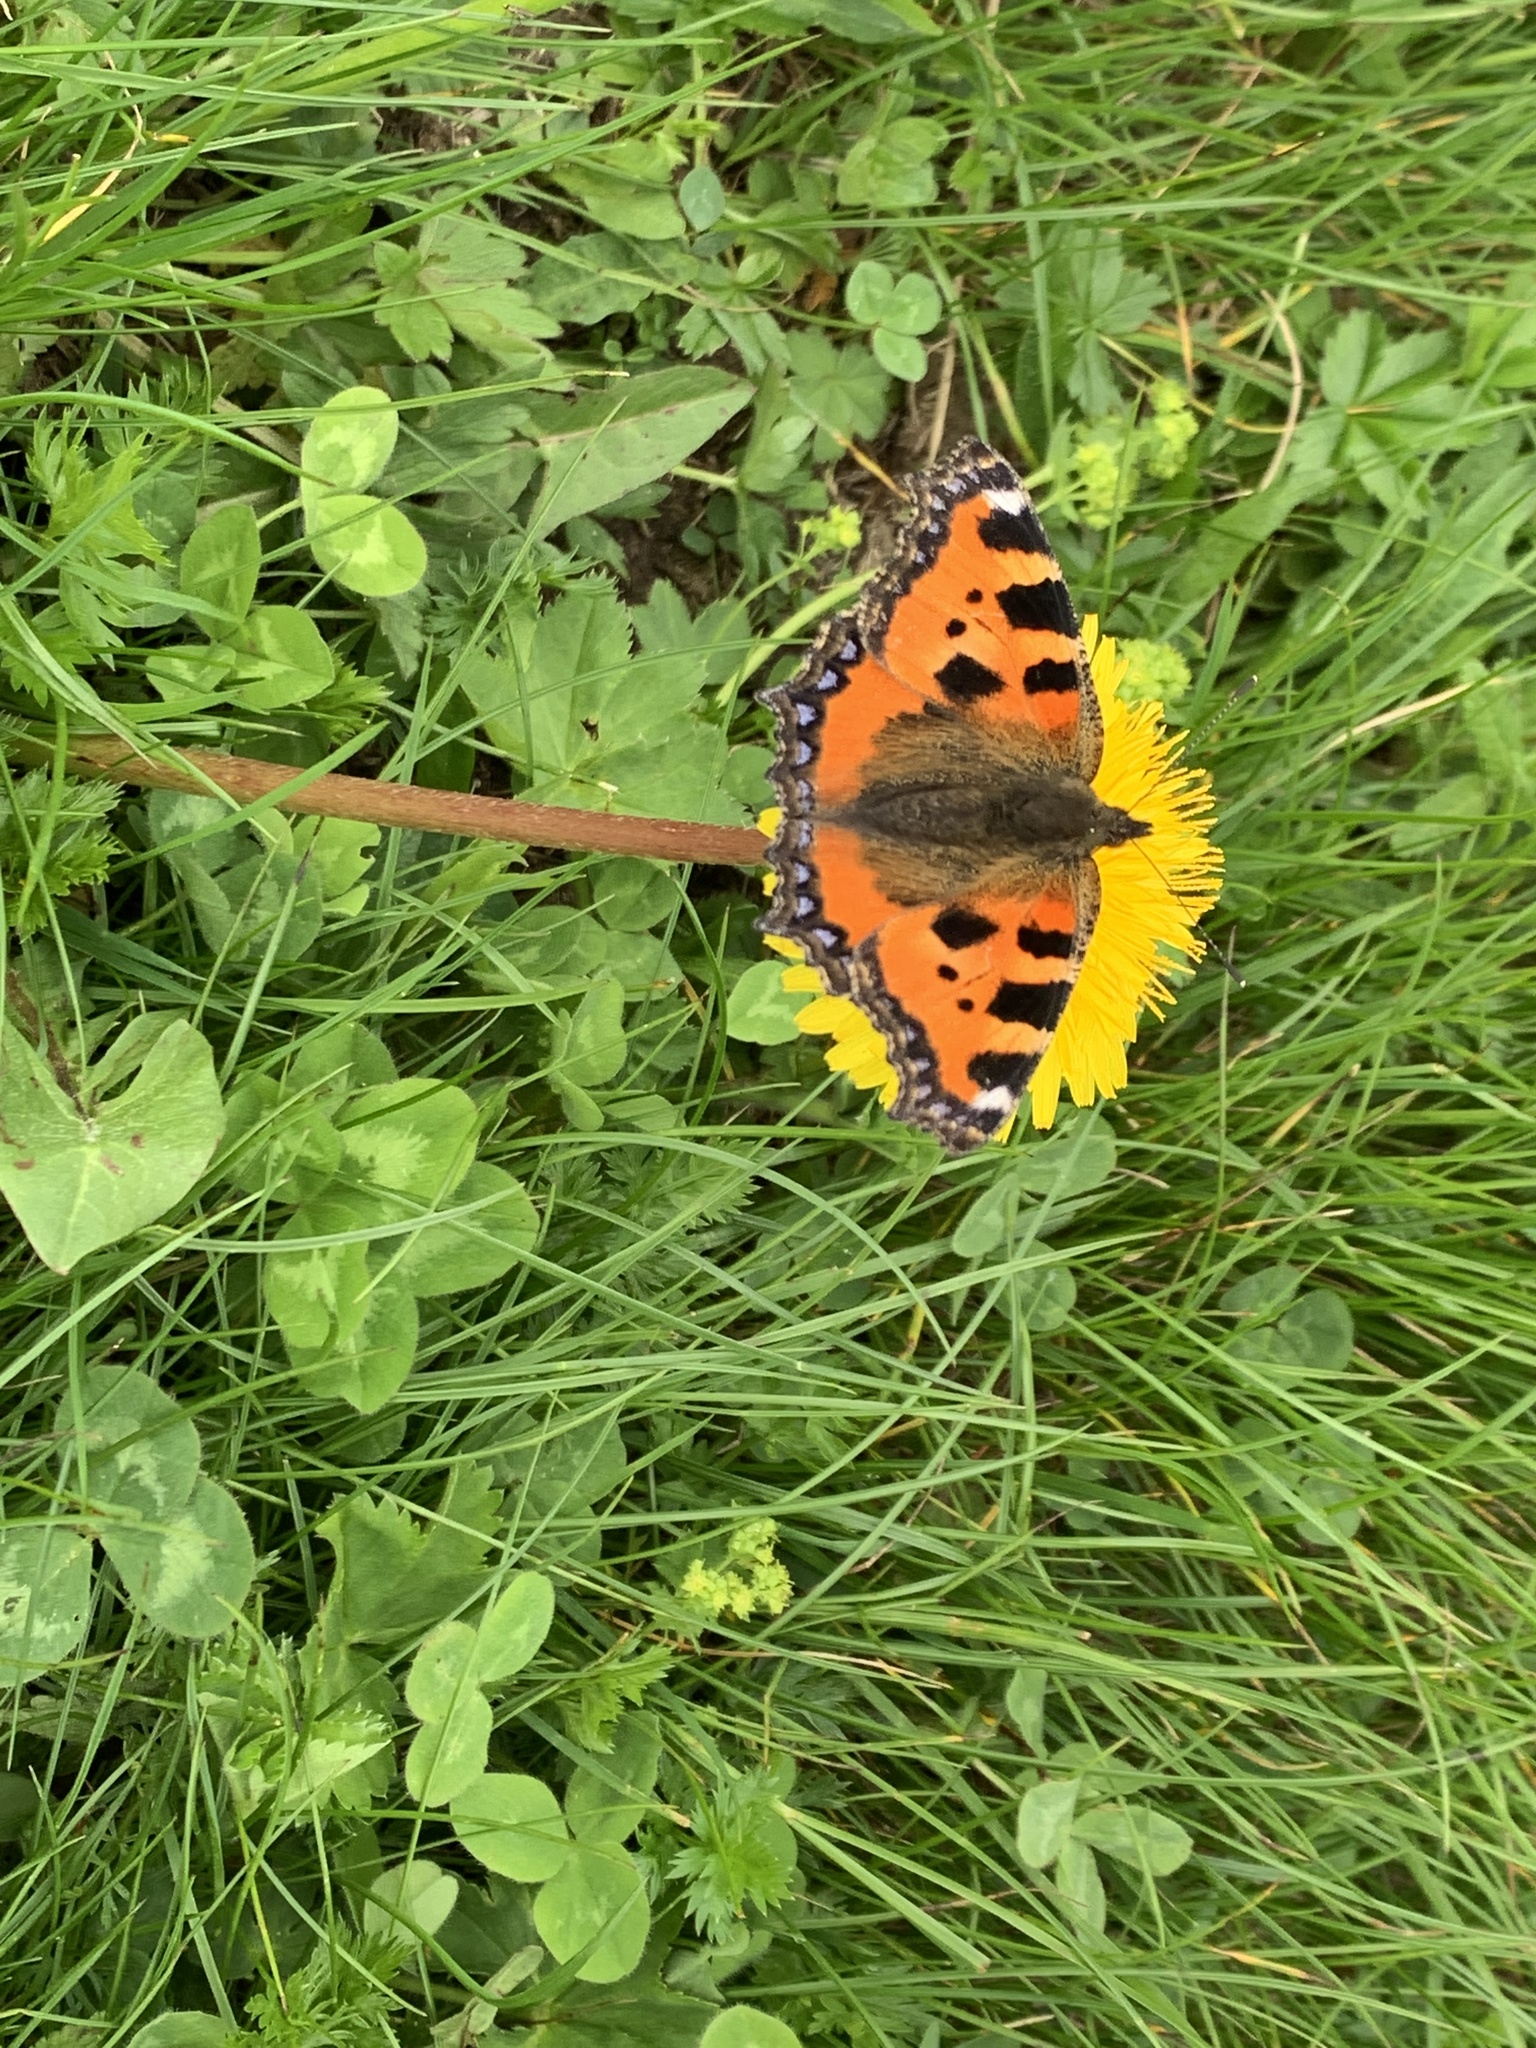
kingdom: Animalia
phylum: Arthropoda
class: Insecta
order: Lepidoptera
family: Nymphalidae
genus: Aglais
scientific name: Aglais urticae
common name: Small tortoiseshell
